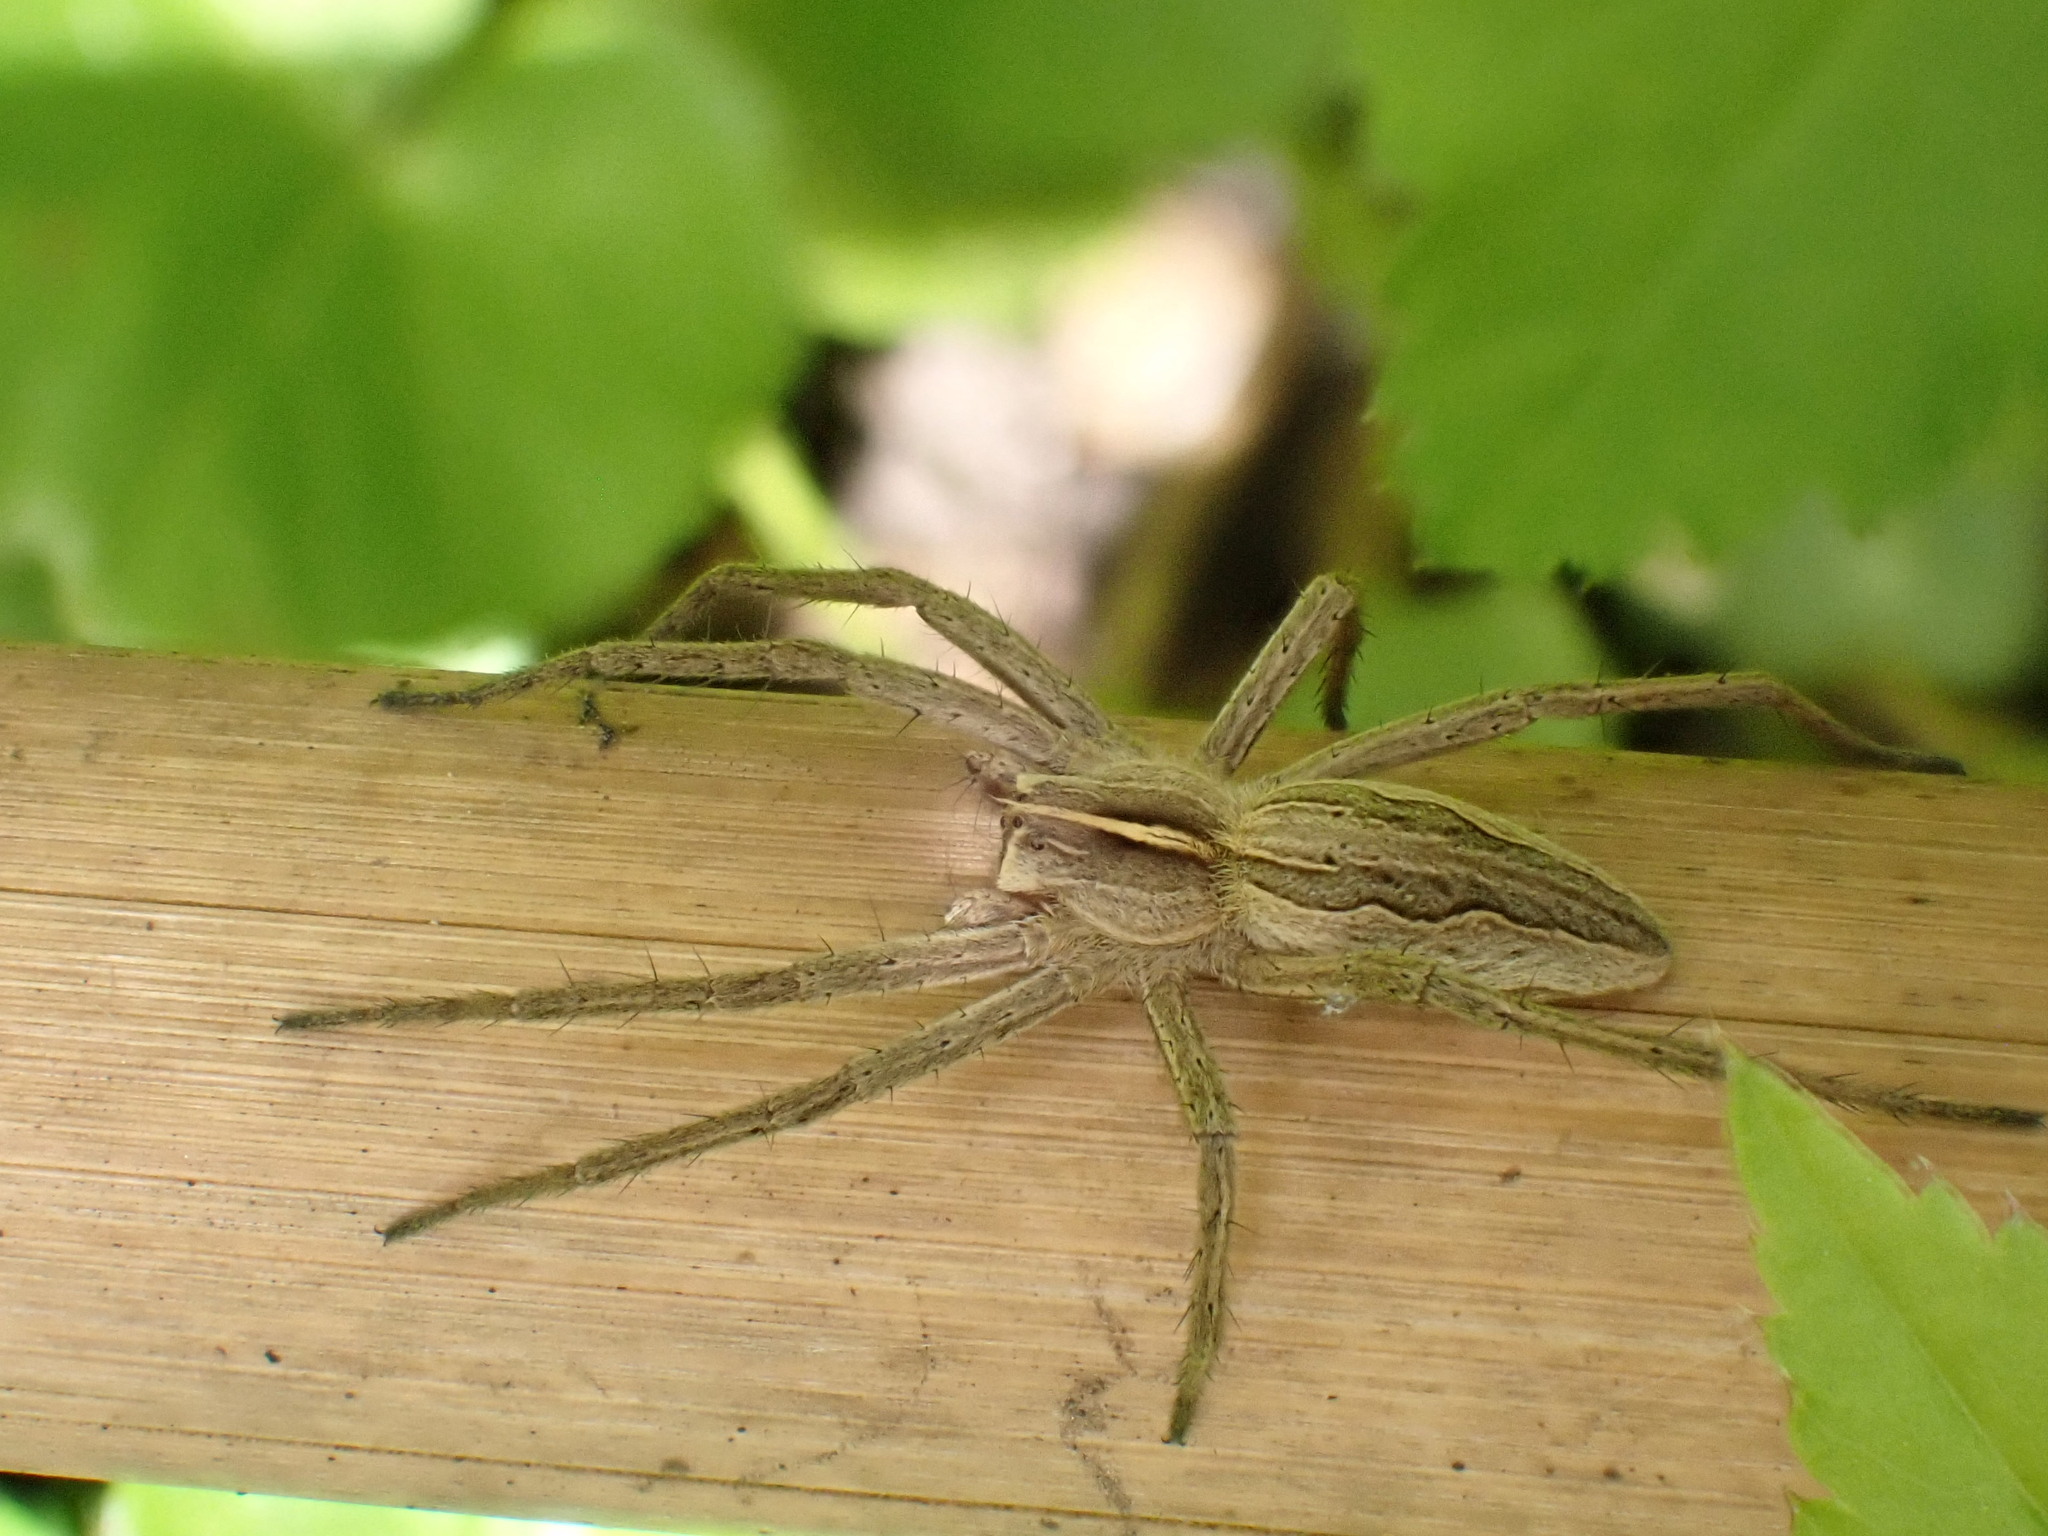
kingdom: Animalia
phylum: Arthropoda
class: Arachnida
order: Araneae
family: Pisauridae
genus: Pisaura
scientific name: Pisaura mirabilis
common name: Tent spider
